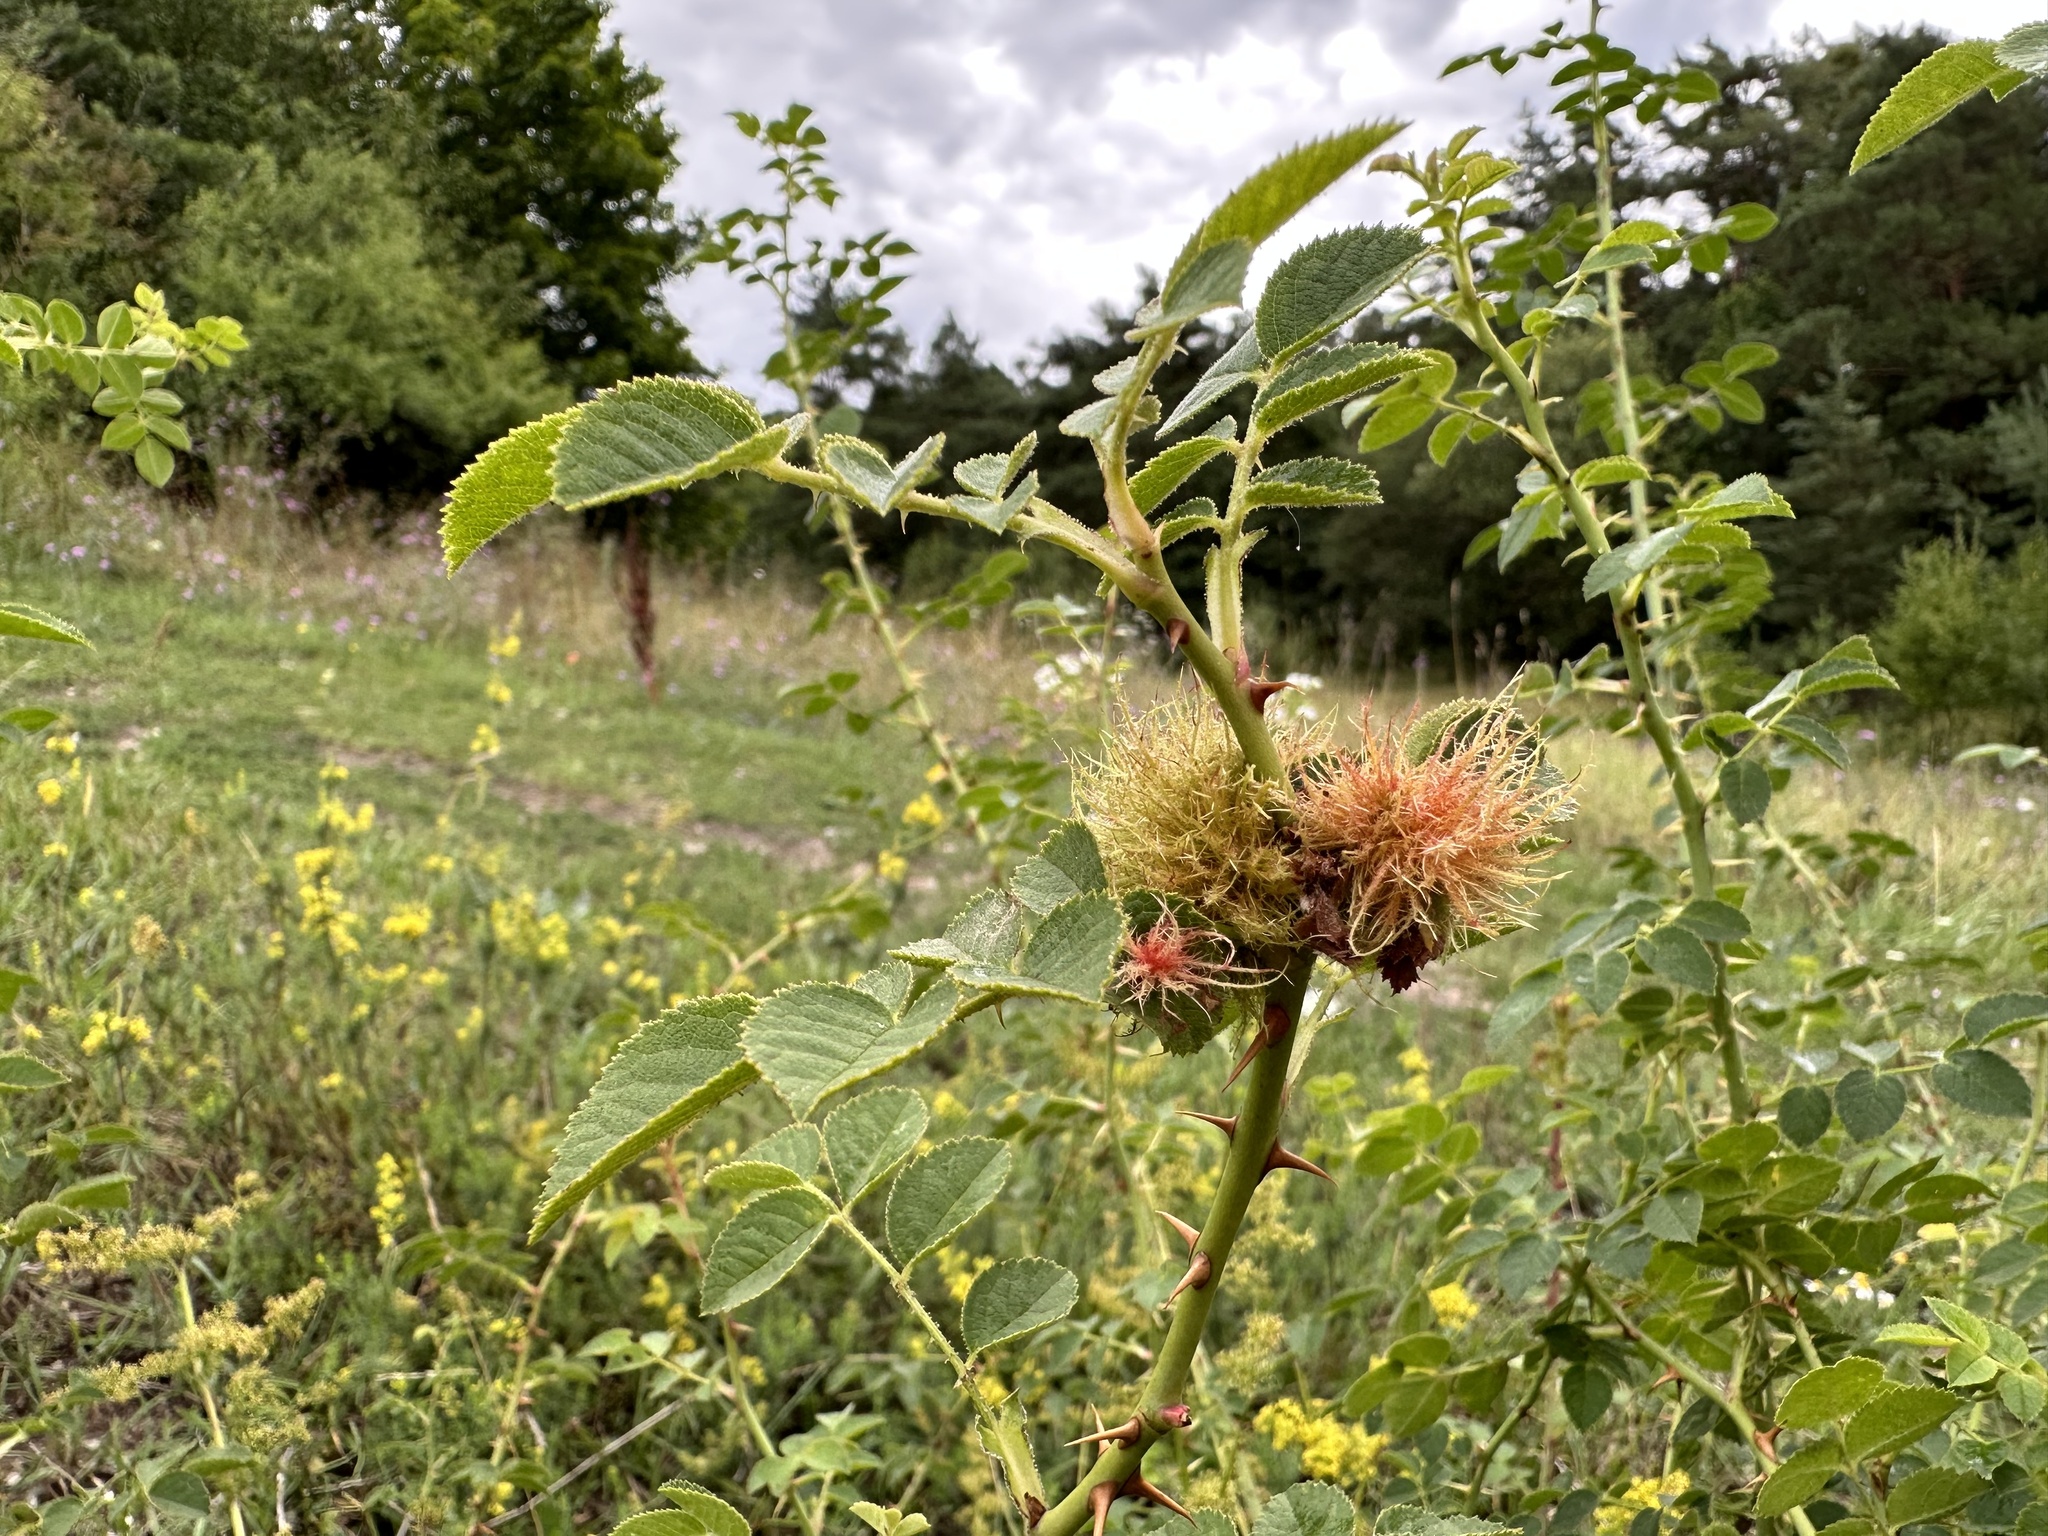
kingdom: Animalia
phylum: Arthropoda
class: Insecta
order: Hymenoptera
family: Cynipidae
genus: Diplolepis
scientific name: Diplolepis rosae
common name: Bedeguar gall
